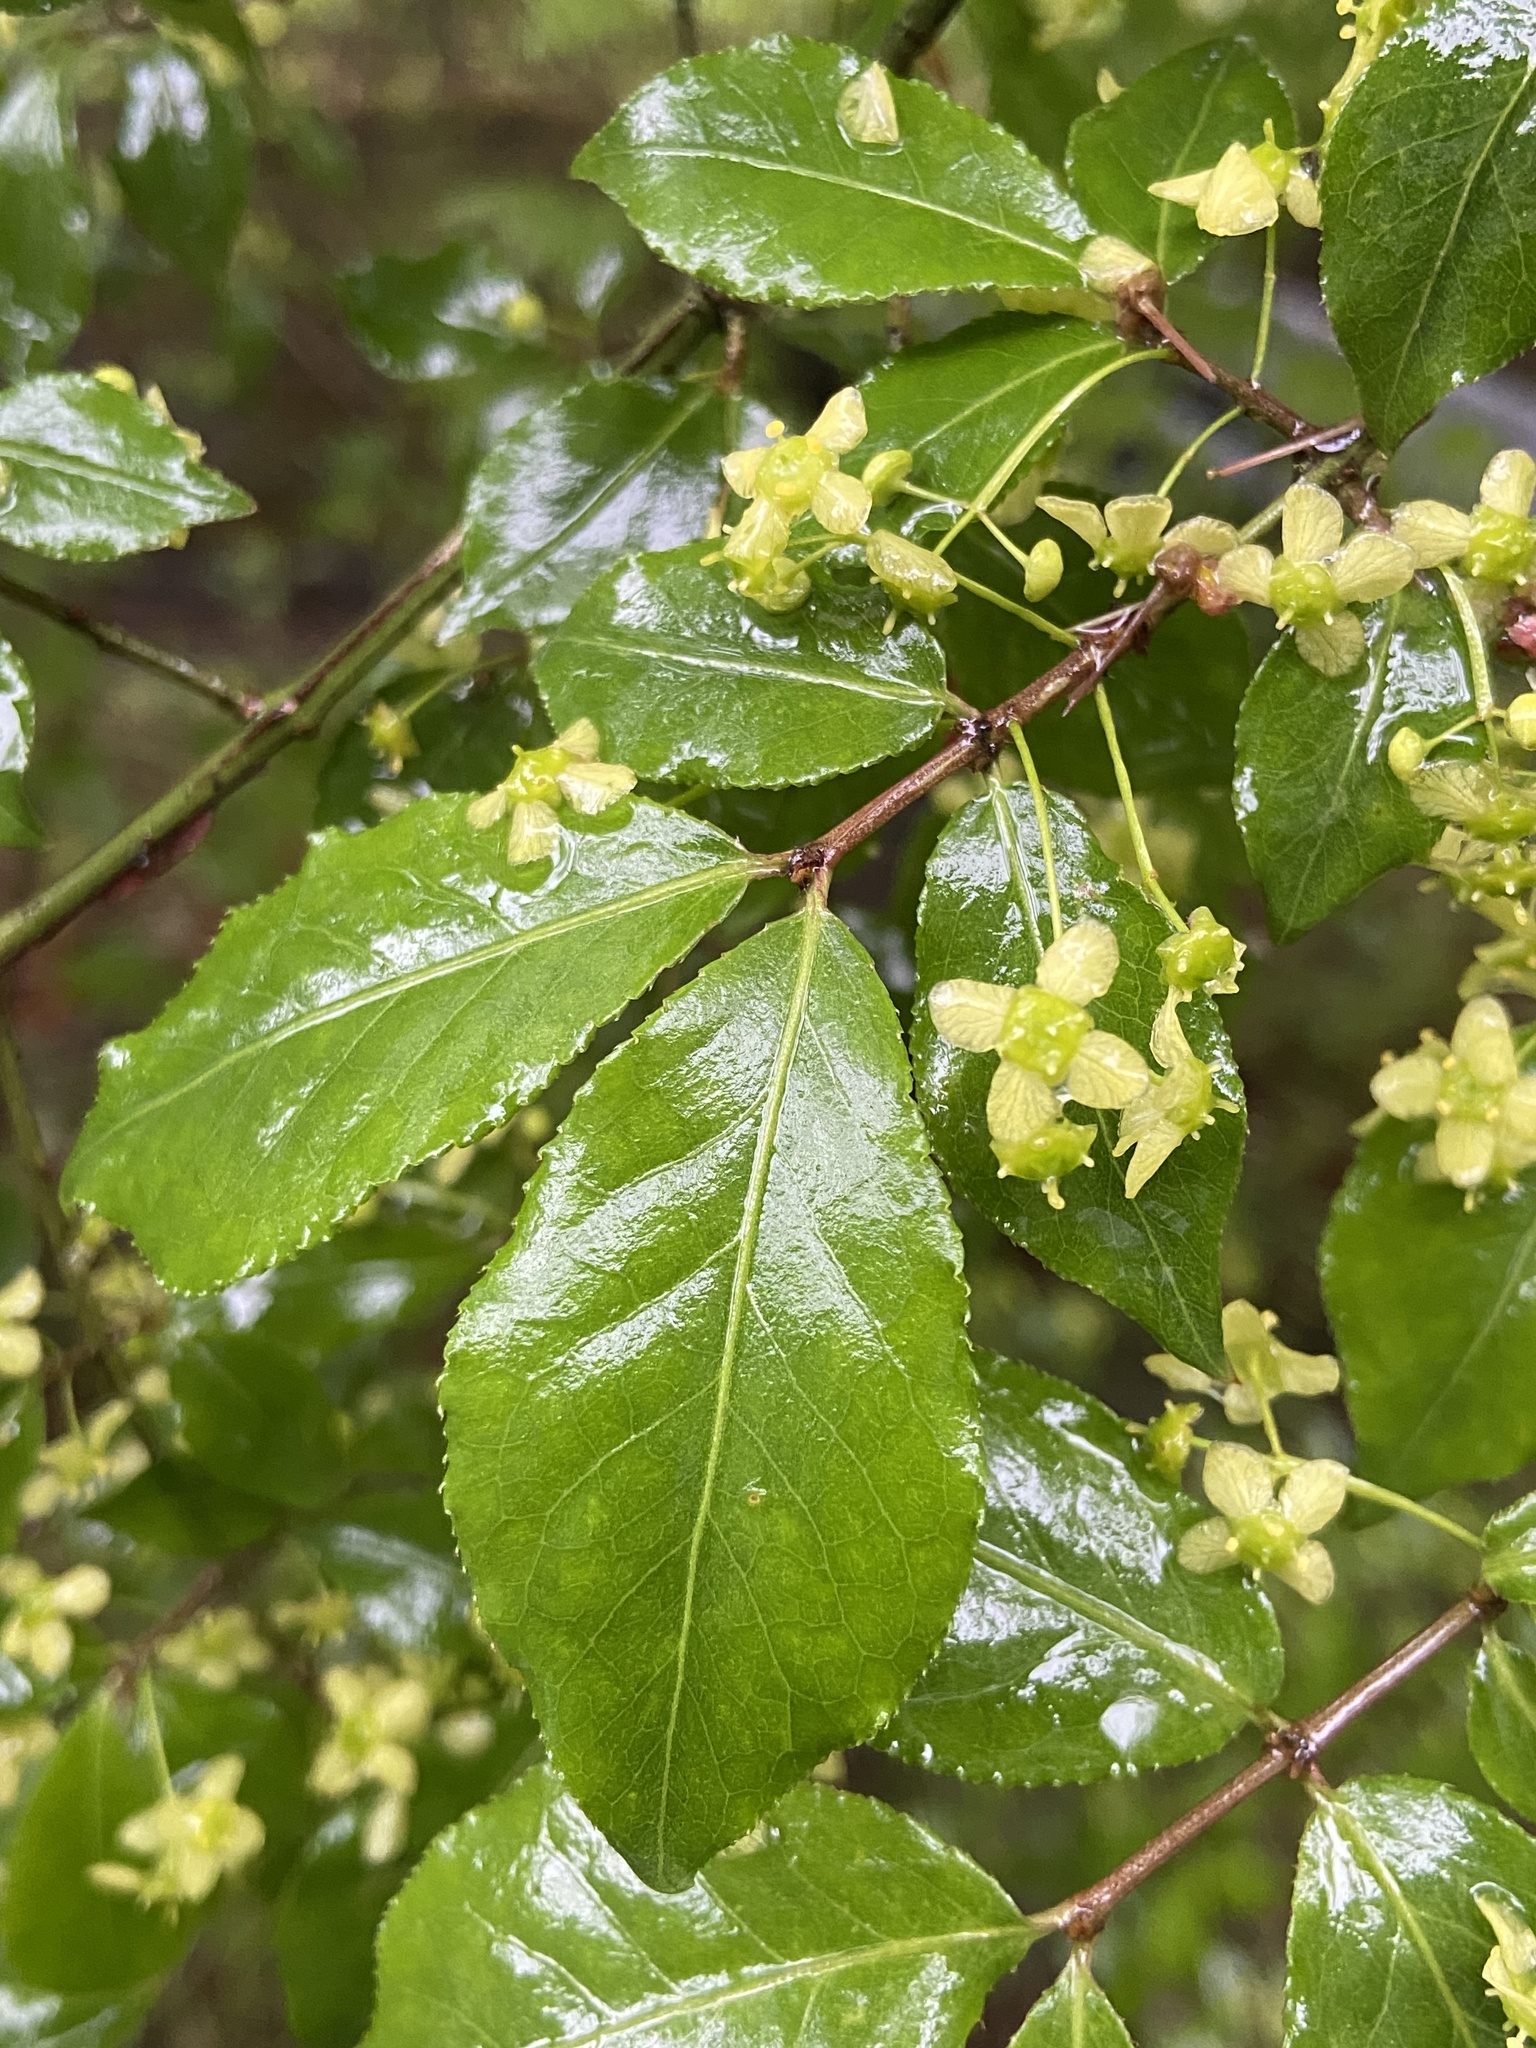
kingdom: Plantae
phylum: Tracheophyta
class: Magnoliopsida
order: Celastrales
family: Celastraceae
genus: Euonymus
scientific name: Euonymus alatus
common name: Winged euonymus
